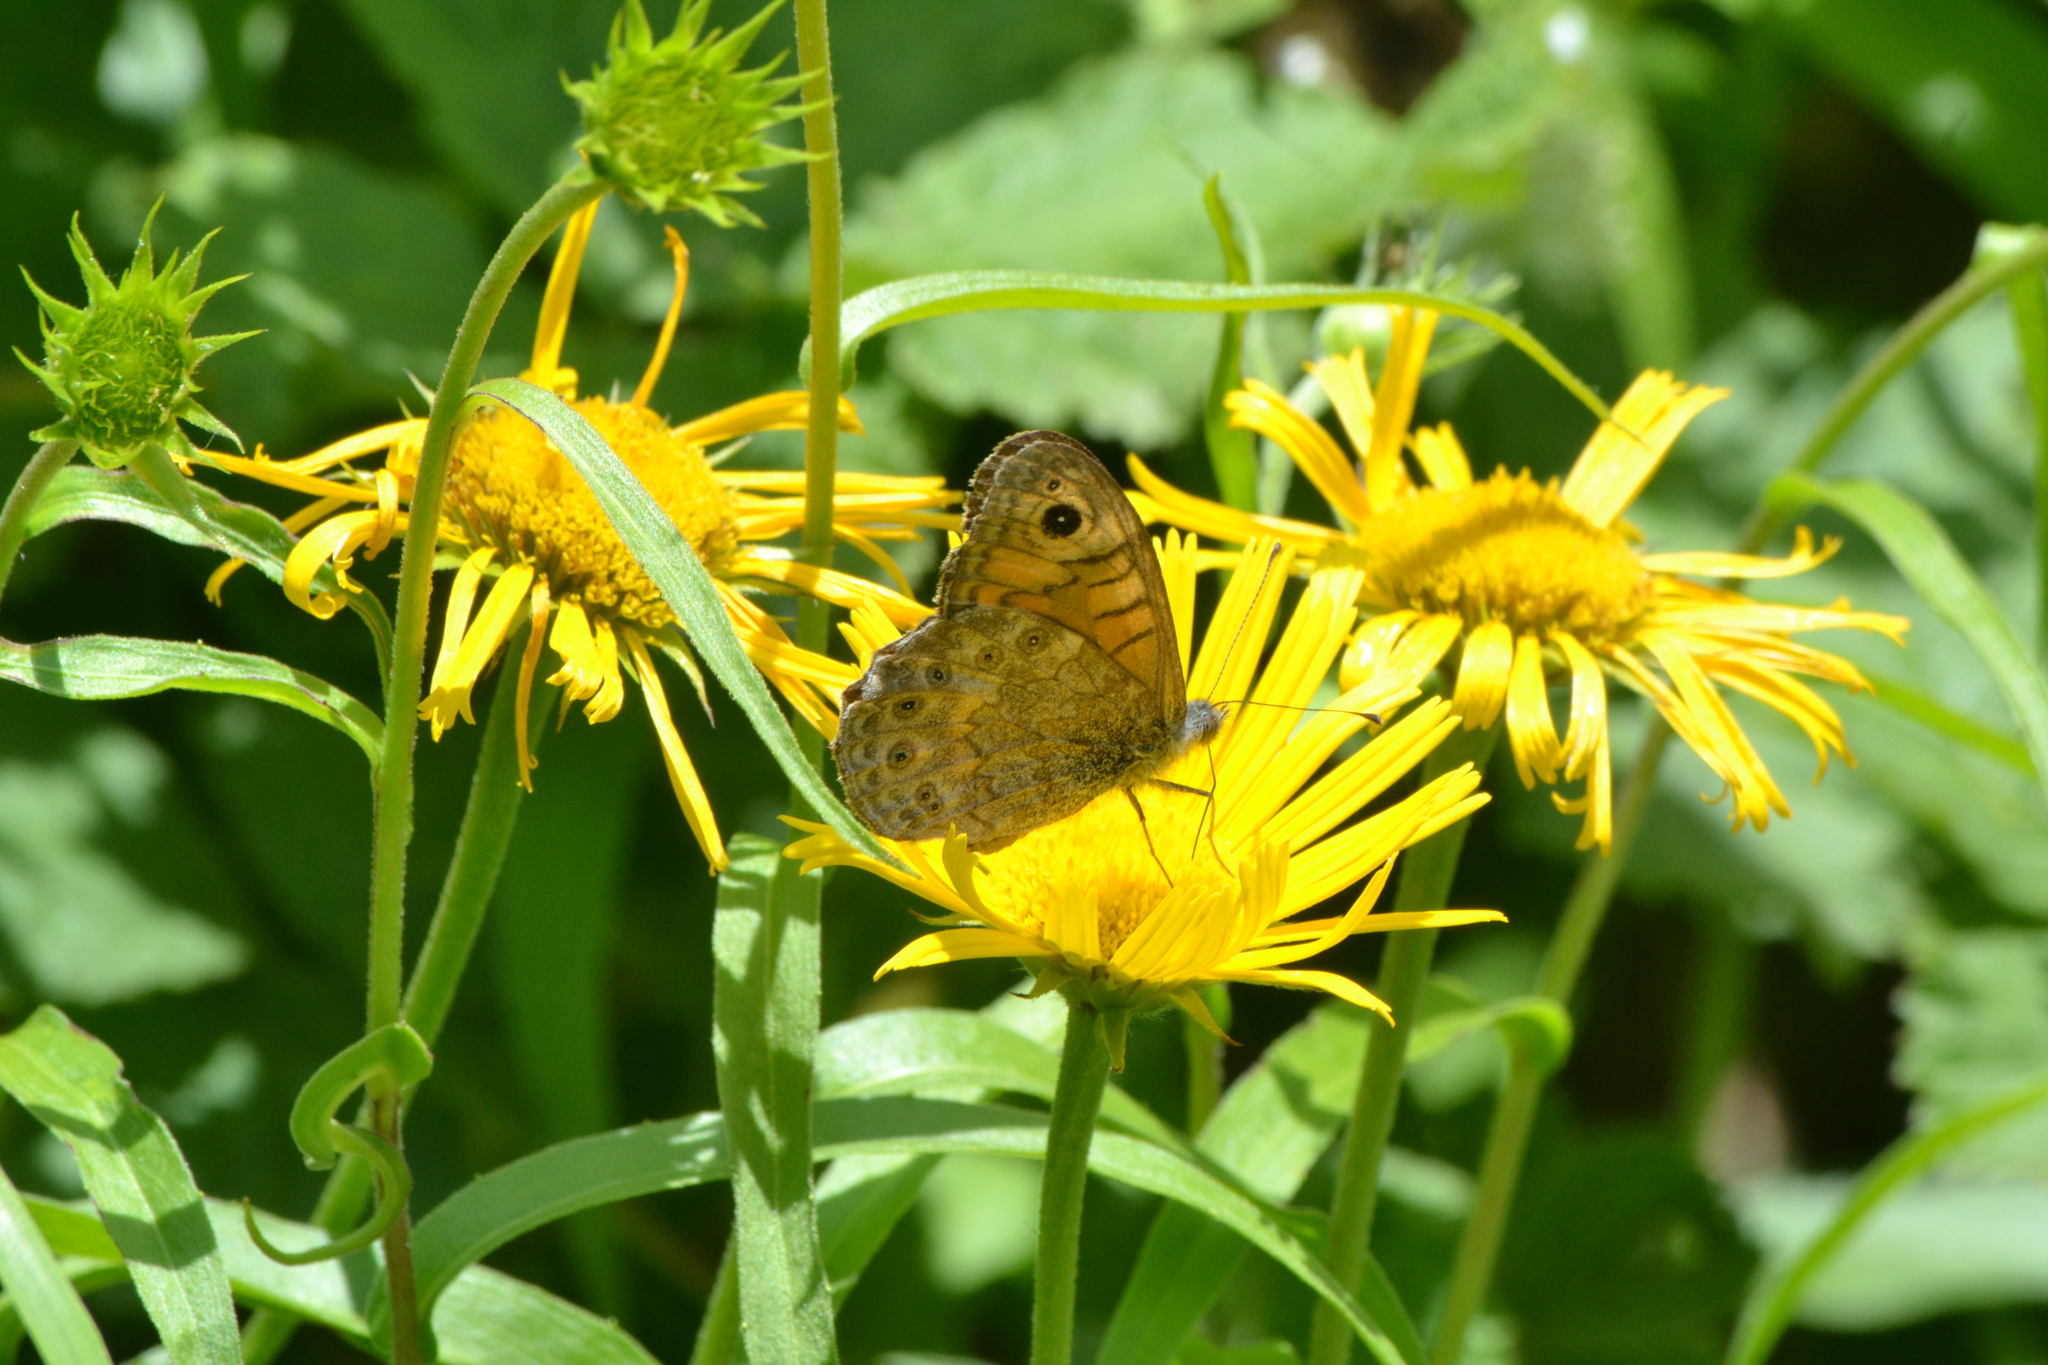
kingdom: Animalia
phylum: Arthropoda
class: Insecta
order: Lepidoptera
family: Nymphalidae
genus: Pararge
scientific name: Pararge Lasiommata megera
